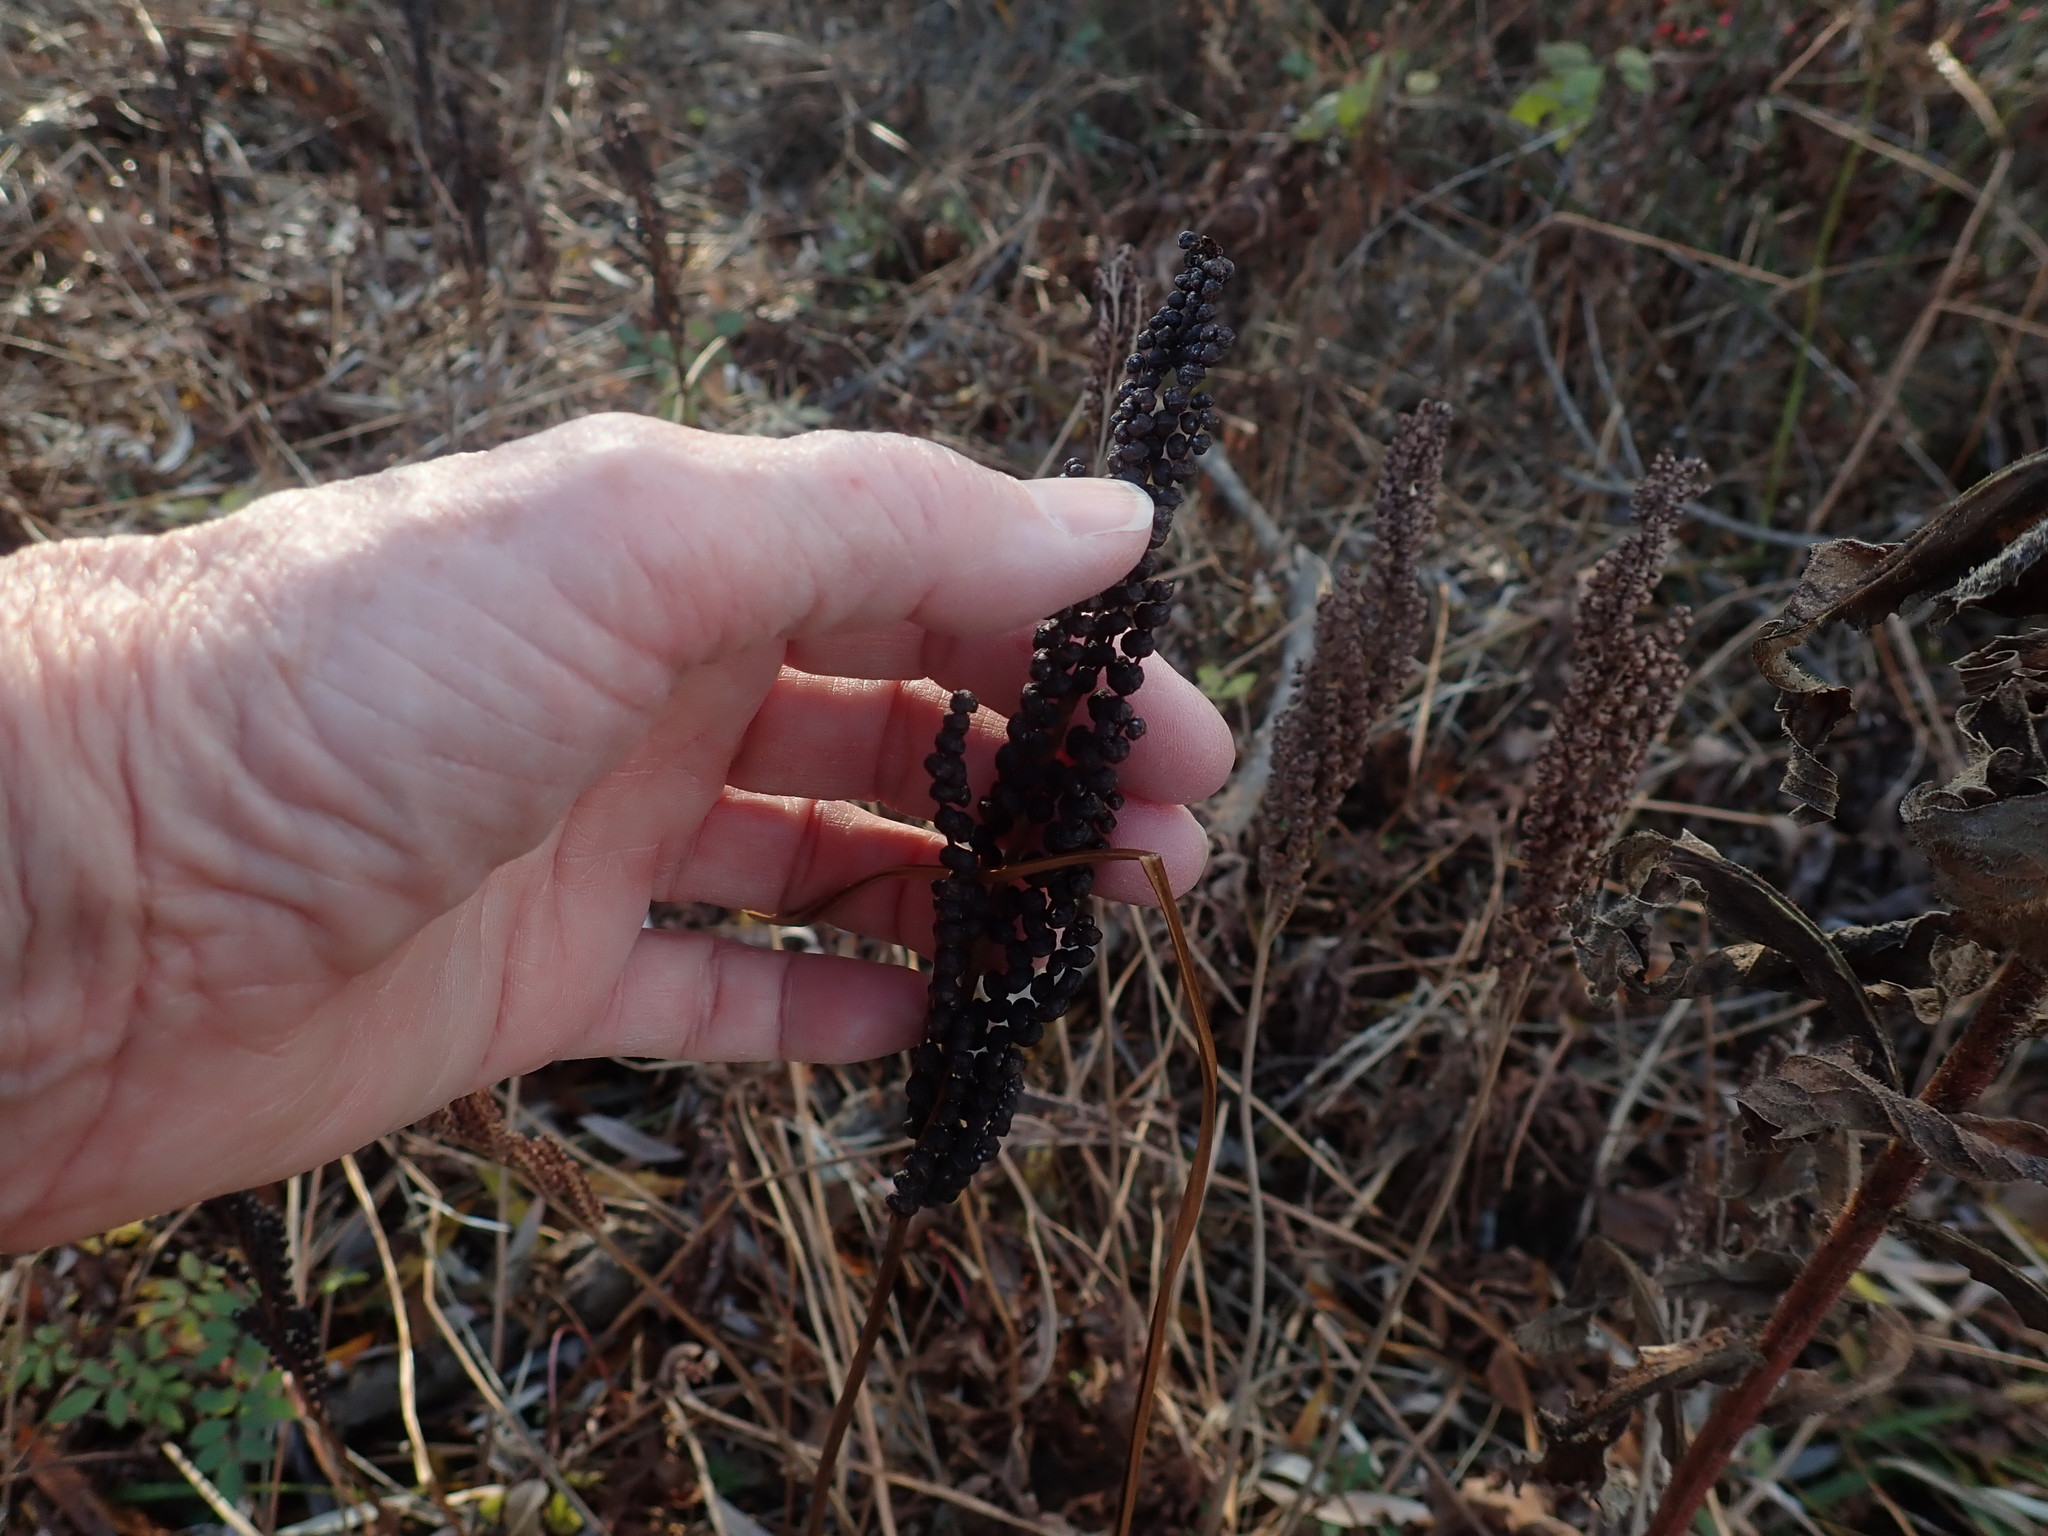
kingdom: Plantae
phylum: Tracheophyta
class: Polypodiopsida
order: Polypodiales
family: Onocleaceae
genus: Onoclea
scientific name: Onoclea sensibilis
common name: Sensitive fern
